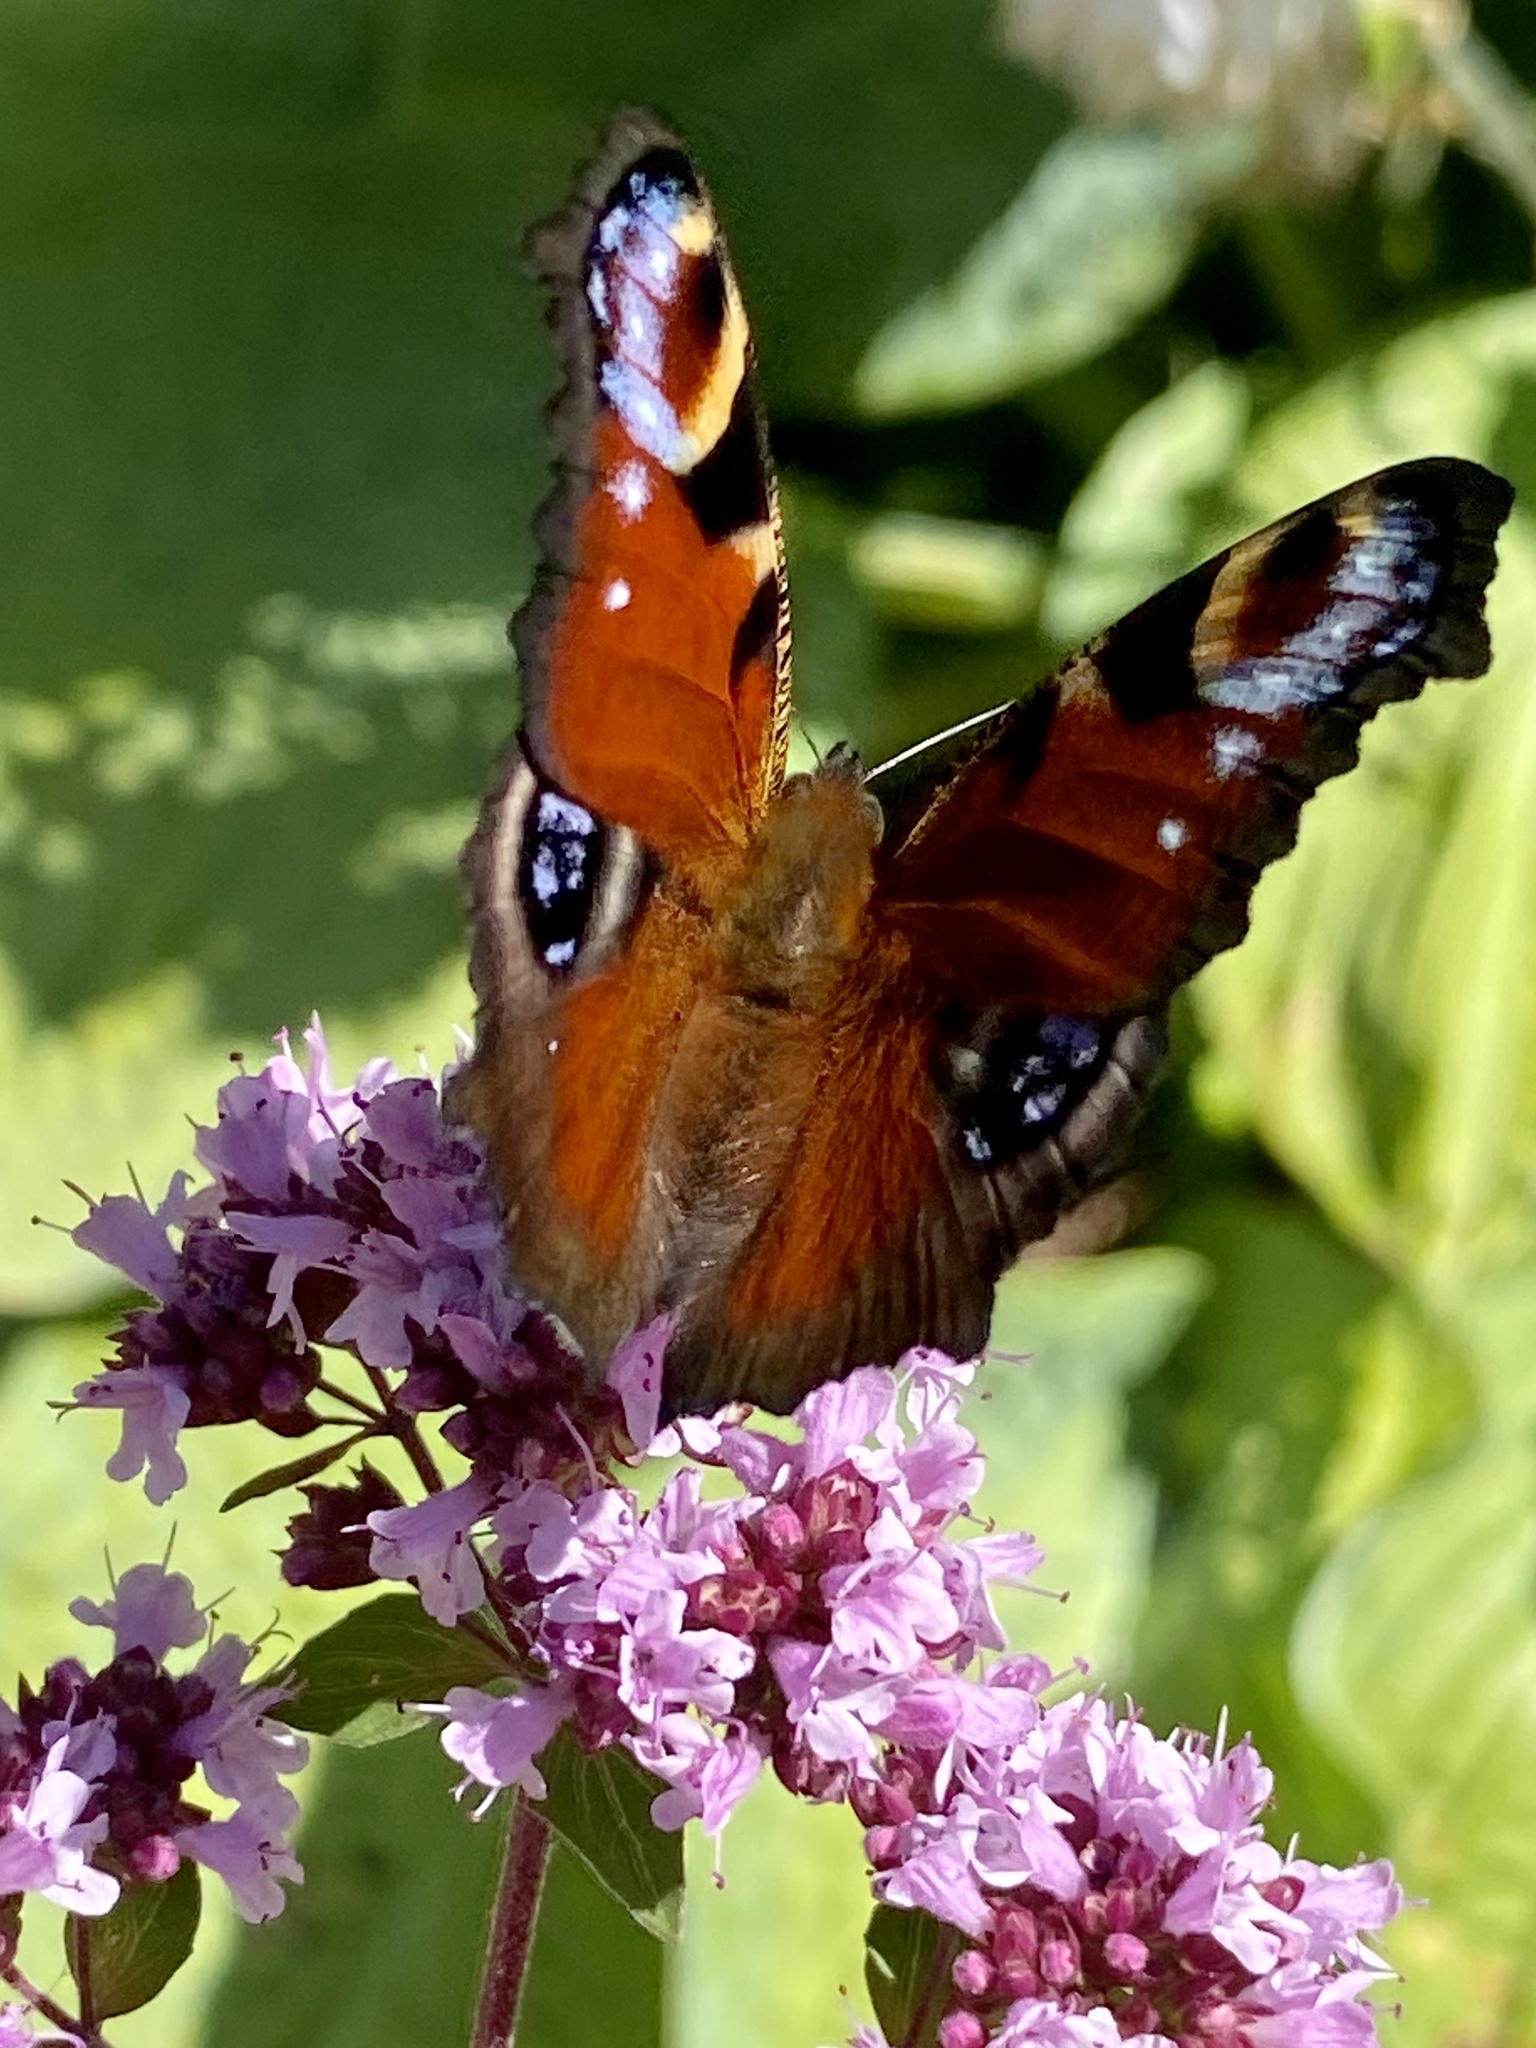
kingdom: Animalia
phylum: Arthropoda
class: Insecta
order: Lepidoptera
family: Nymphalidae
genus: Aglais
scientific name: Aglais io
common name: Peacock
